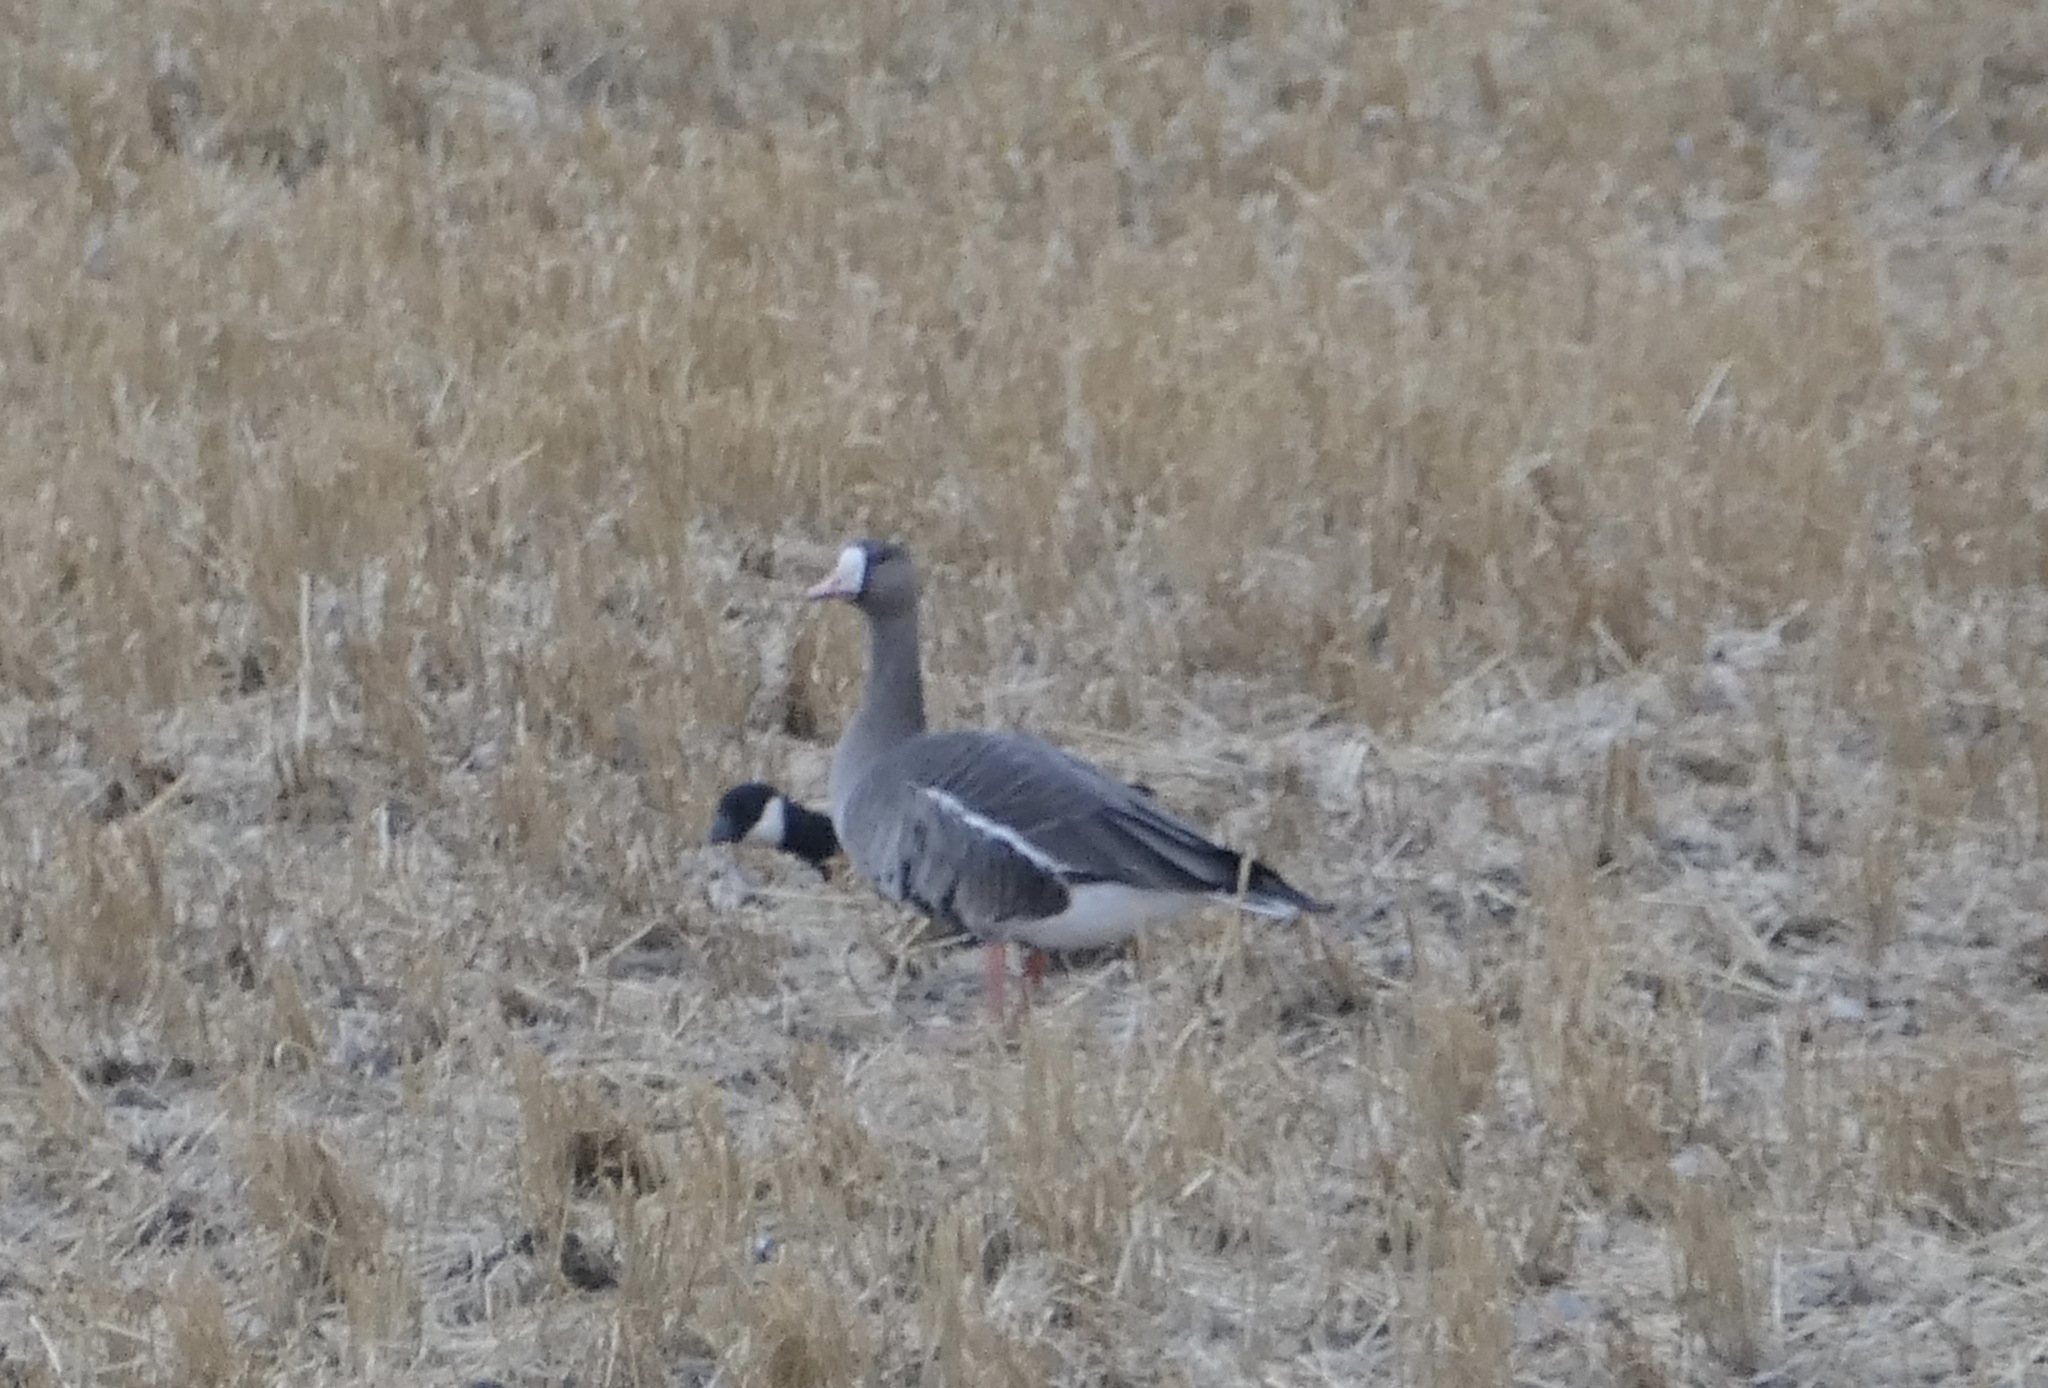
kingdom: Animalia
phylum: Chordata
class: Aves
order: Anseriformes
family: Anatidae
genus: Anser
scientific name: Anser albifrons
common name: Greater white-fronted goose
